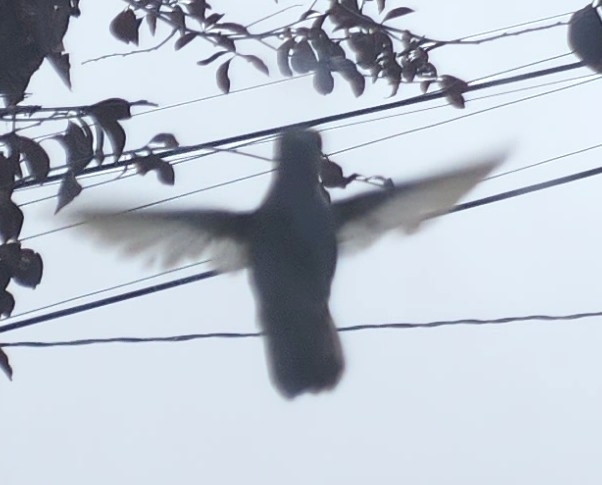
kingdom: Animalia
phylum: Chordata
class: Aves
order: Apodiformes
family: Trochilidae
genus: Calypte
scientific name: Calypte anna
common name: Anna's hummingbird
